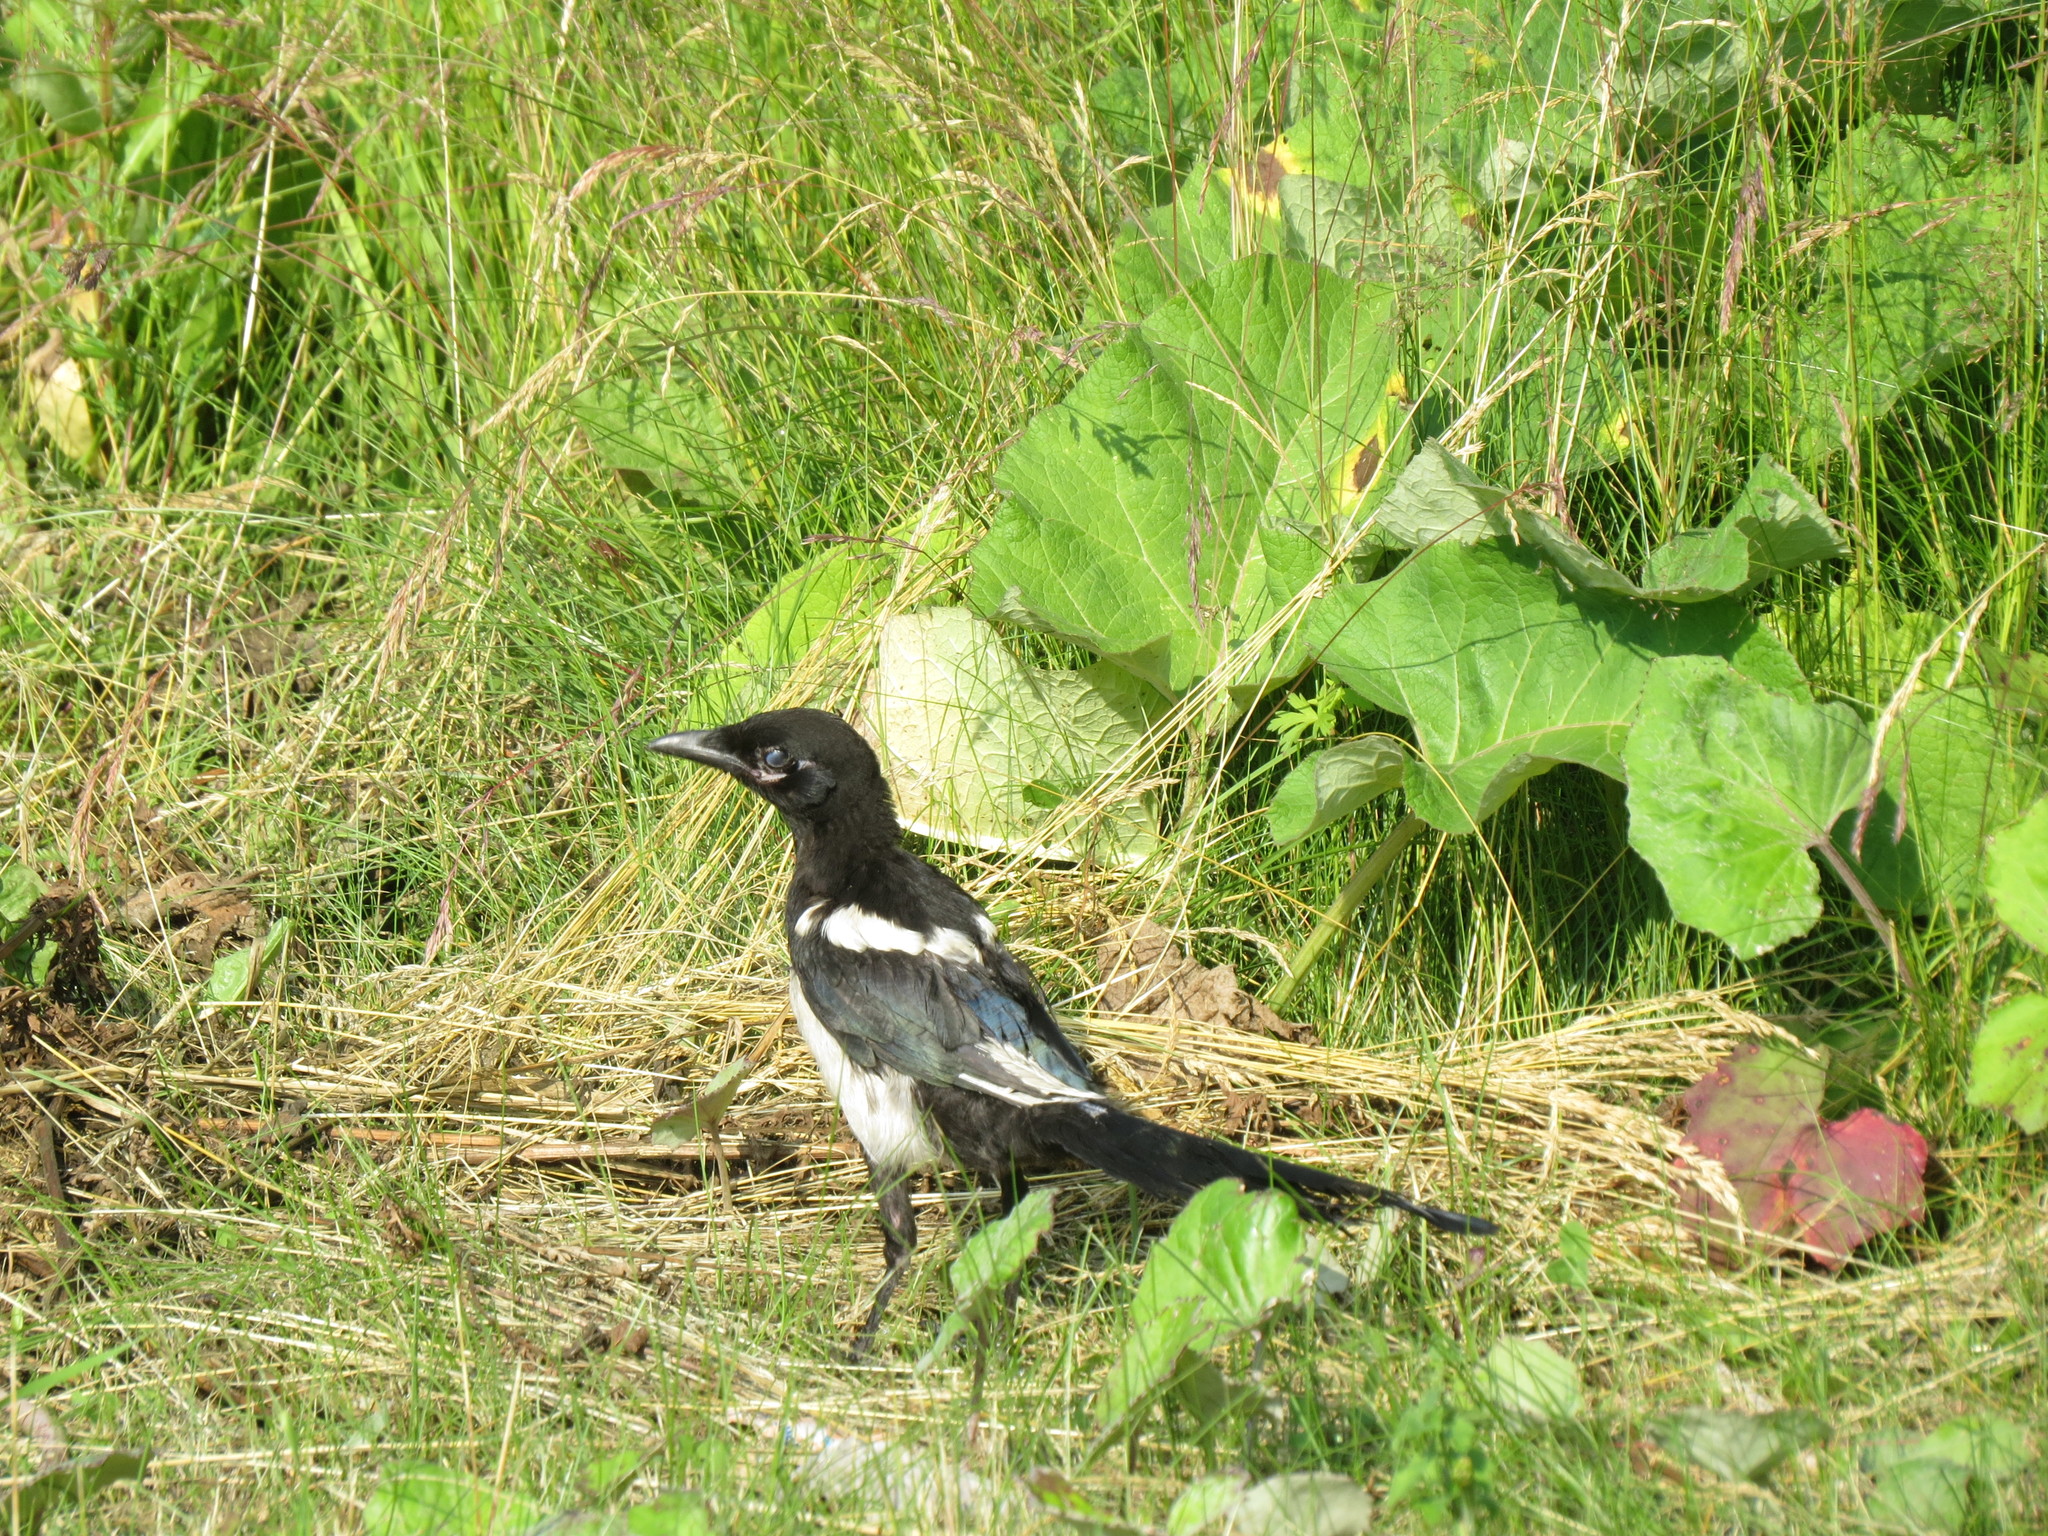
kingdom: Animalia
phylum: Chordata
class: Aves
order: Passeriformes
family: Corvidae
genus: Pica
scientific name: Pica pica
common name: Eurasian magpie
